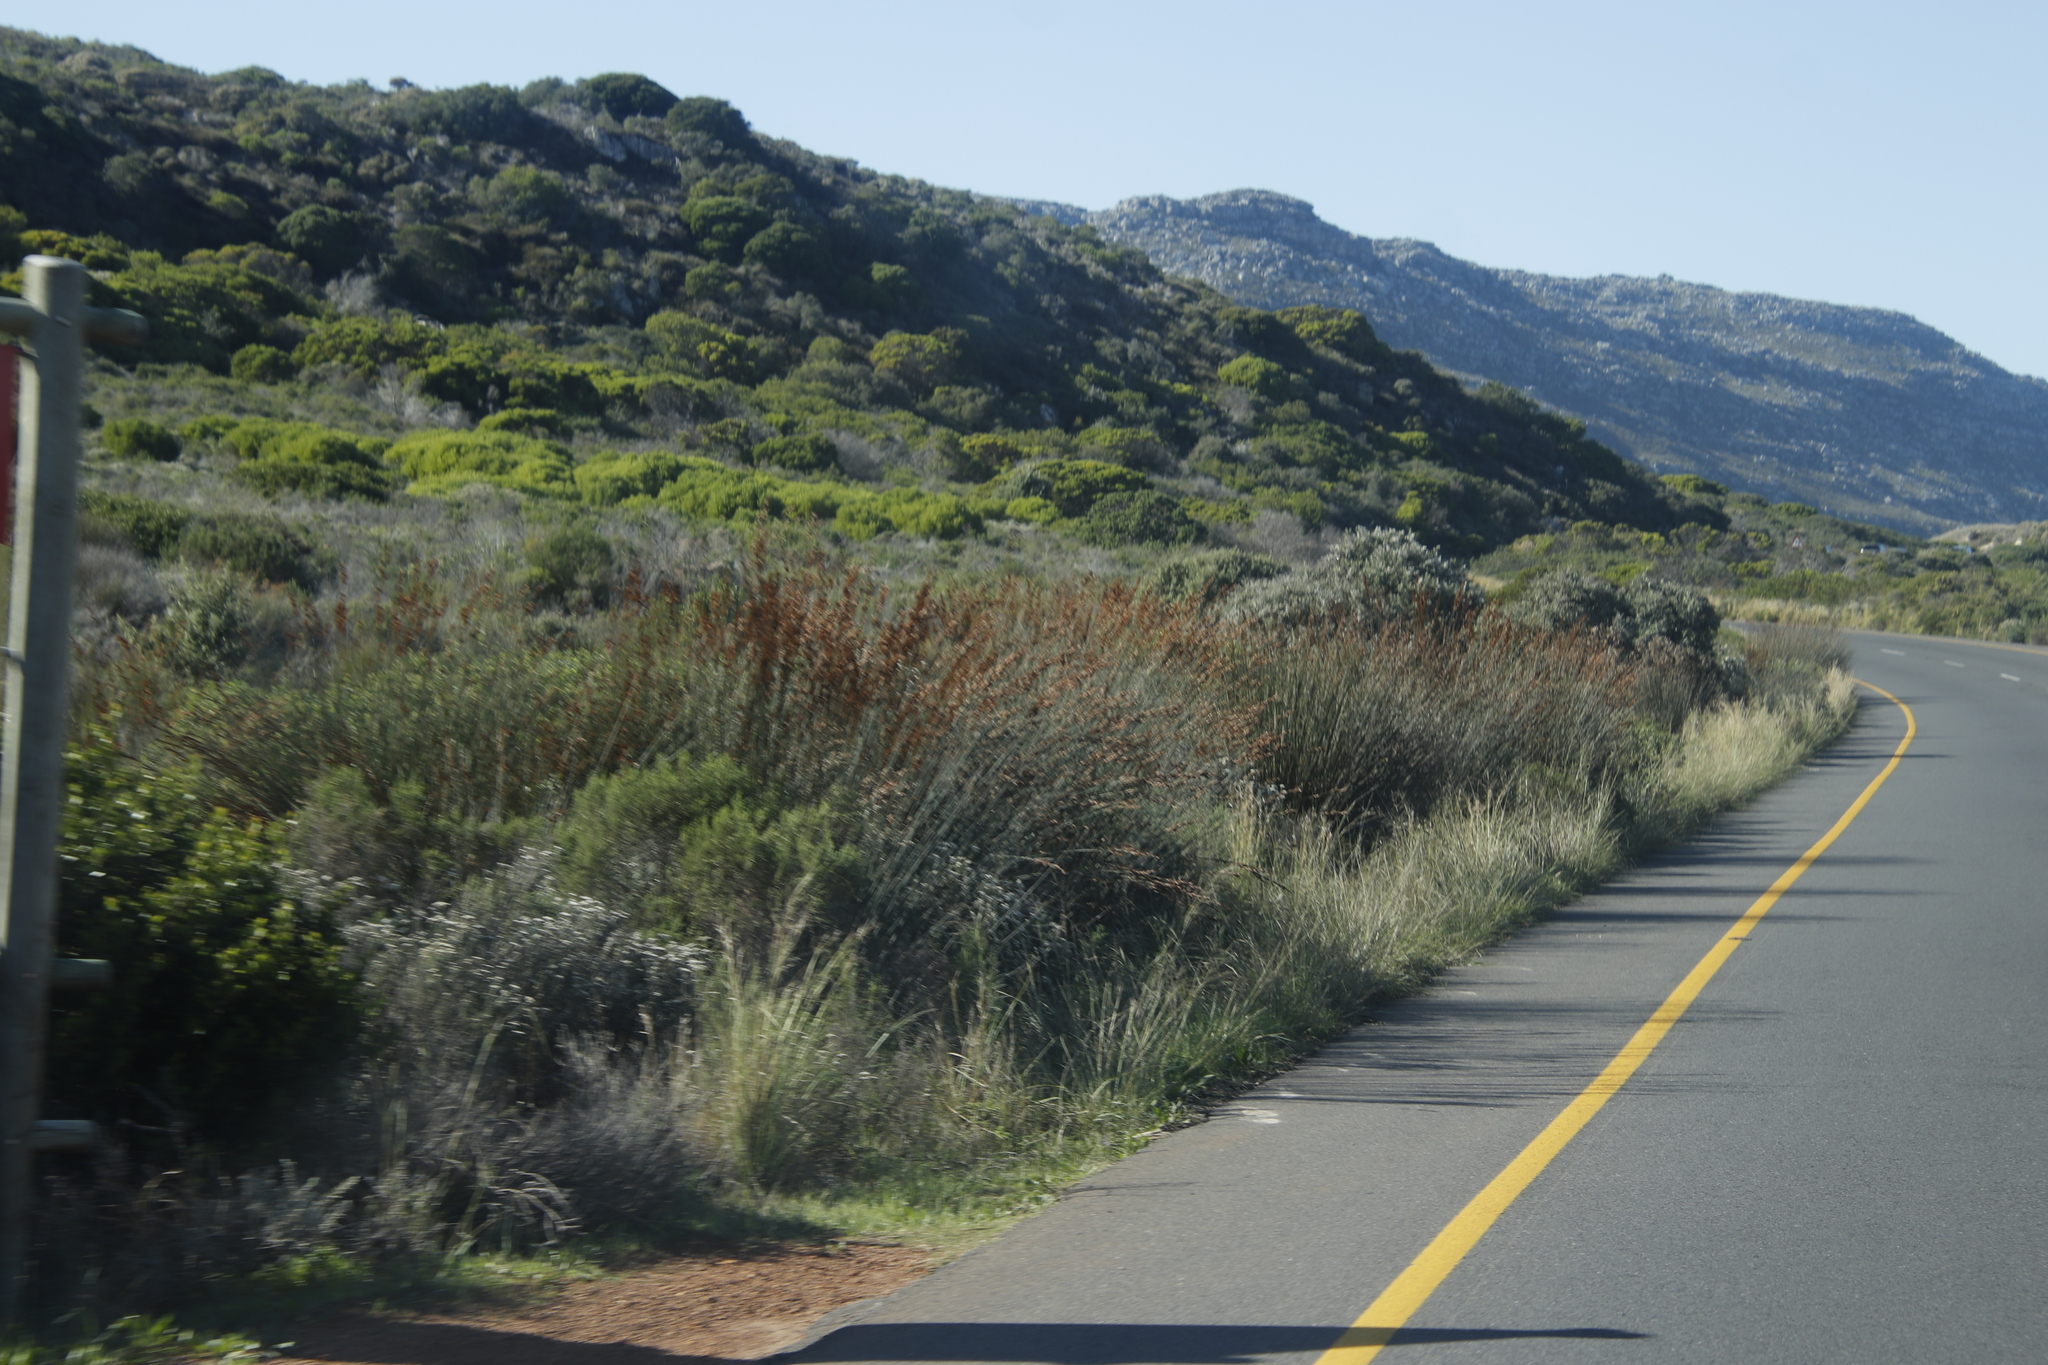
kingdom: Plantae
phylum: Tracheophyta
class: Liliopsida
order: Poales
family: Restionaceae
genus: Thamnochortus
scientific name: Thamnochortus insignis
